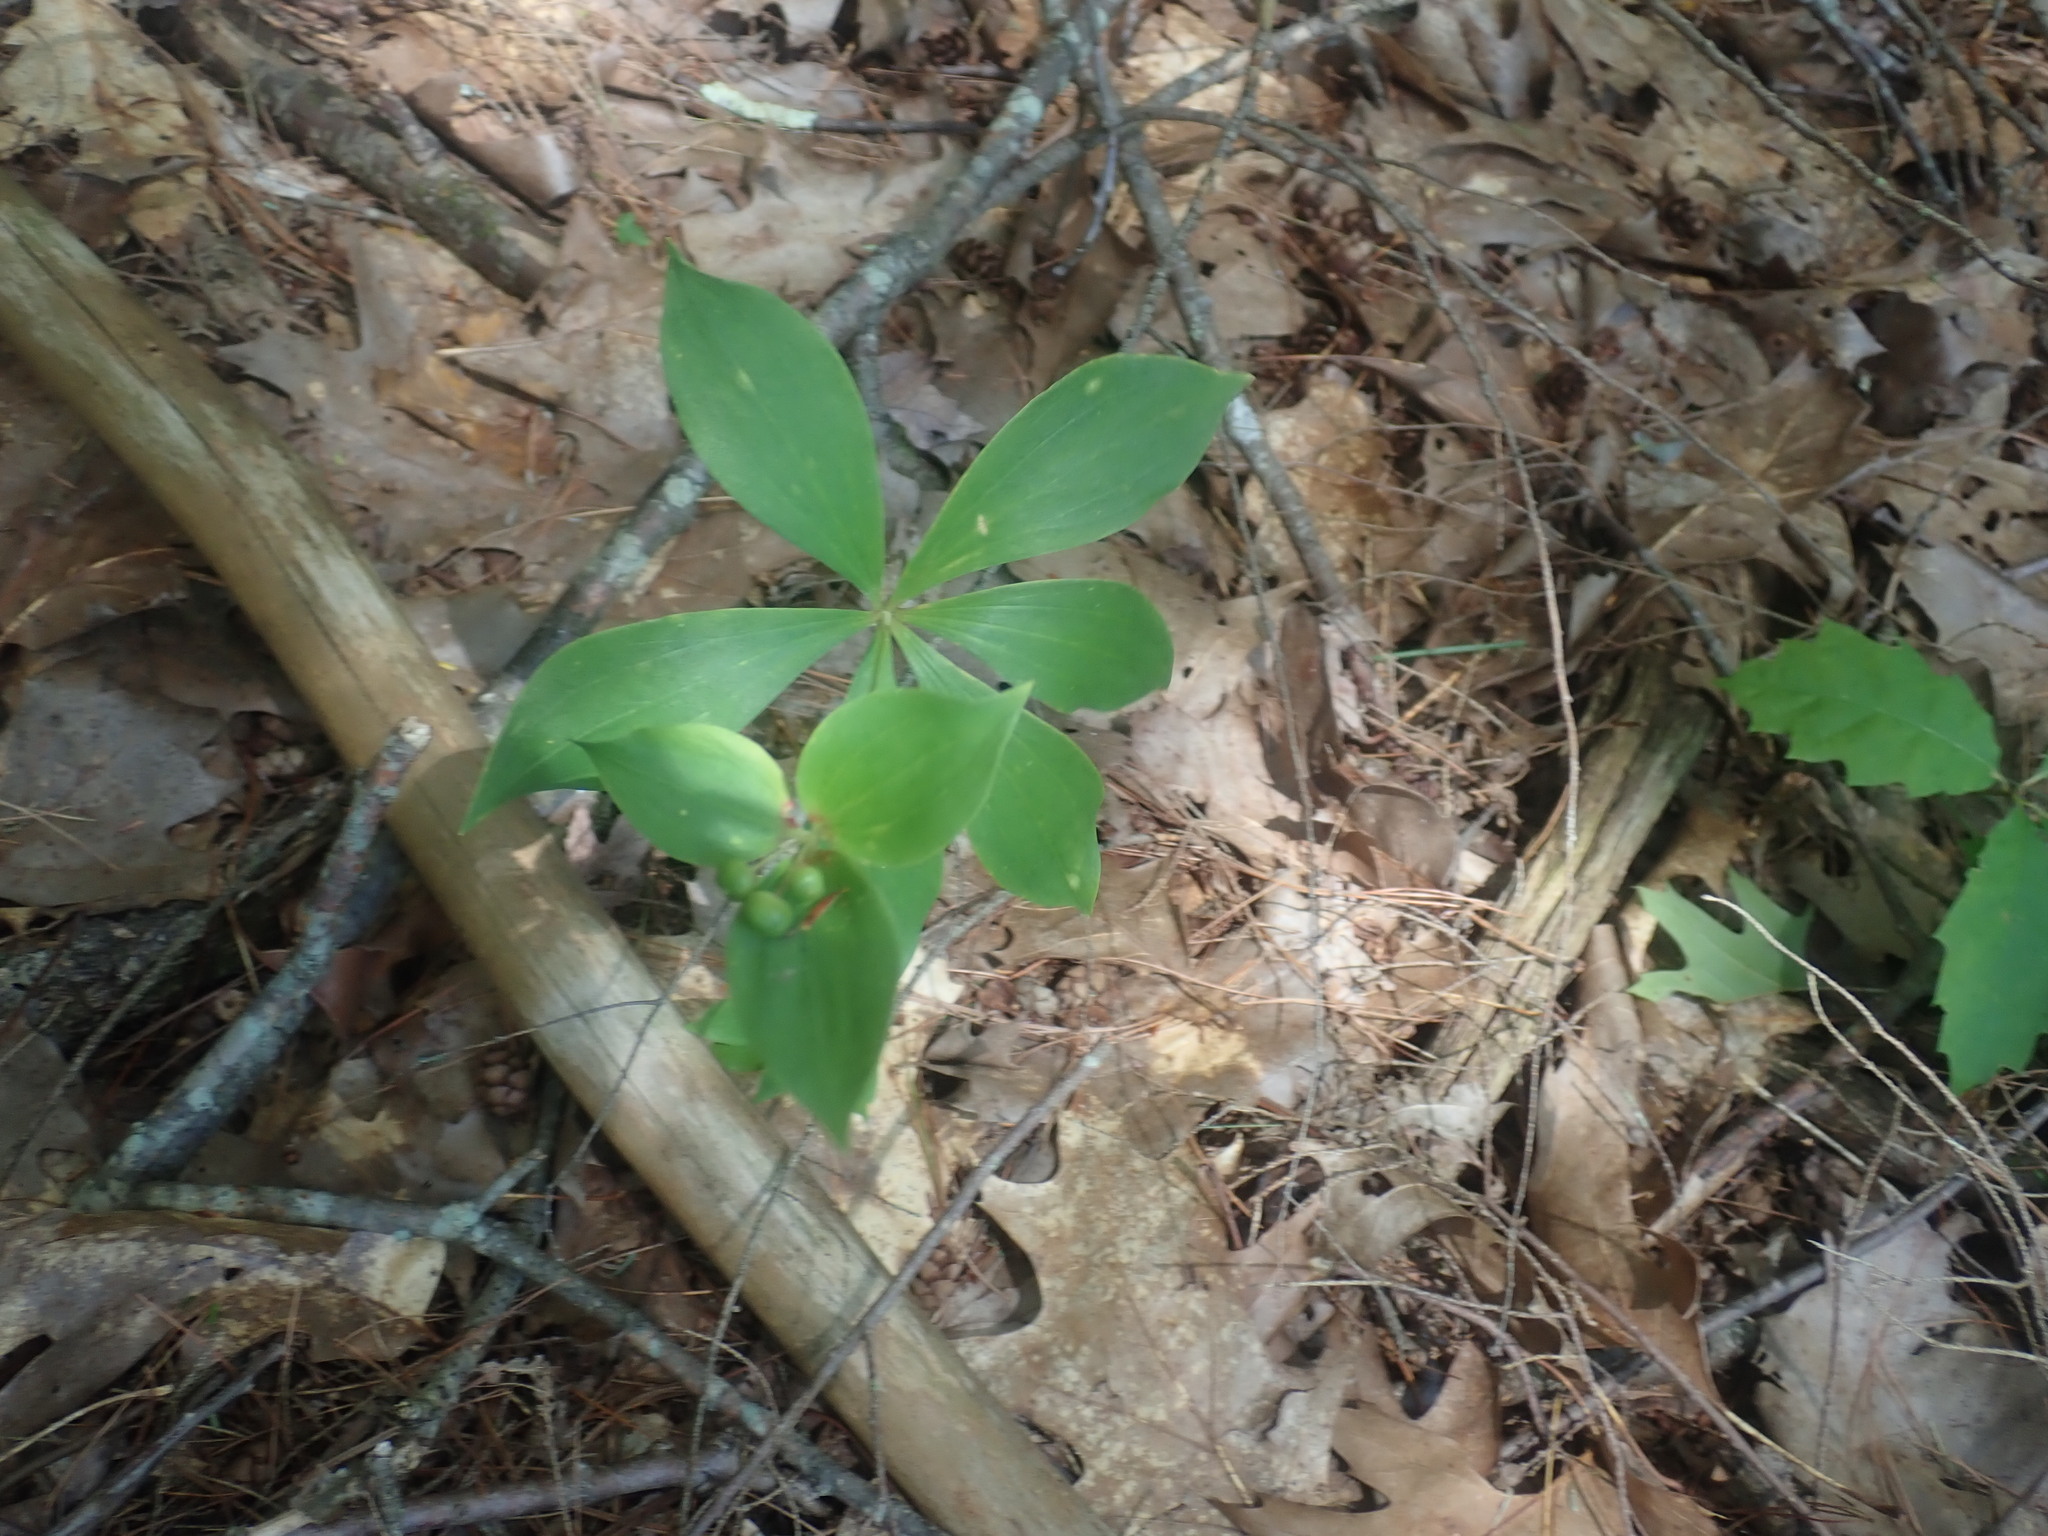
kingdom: Plantae
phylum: Tracheophyta
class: Liliopsida
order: Liliales
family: Liliaceae
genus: Medeola
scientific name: Medeola virginiana
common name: Indian cucumber-root
